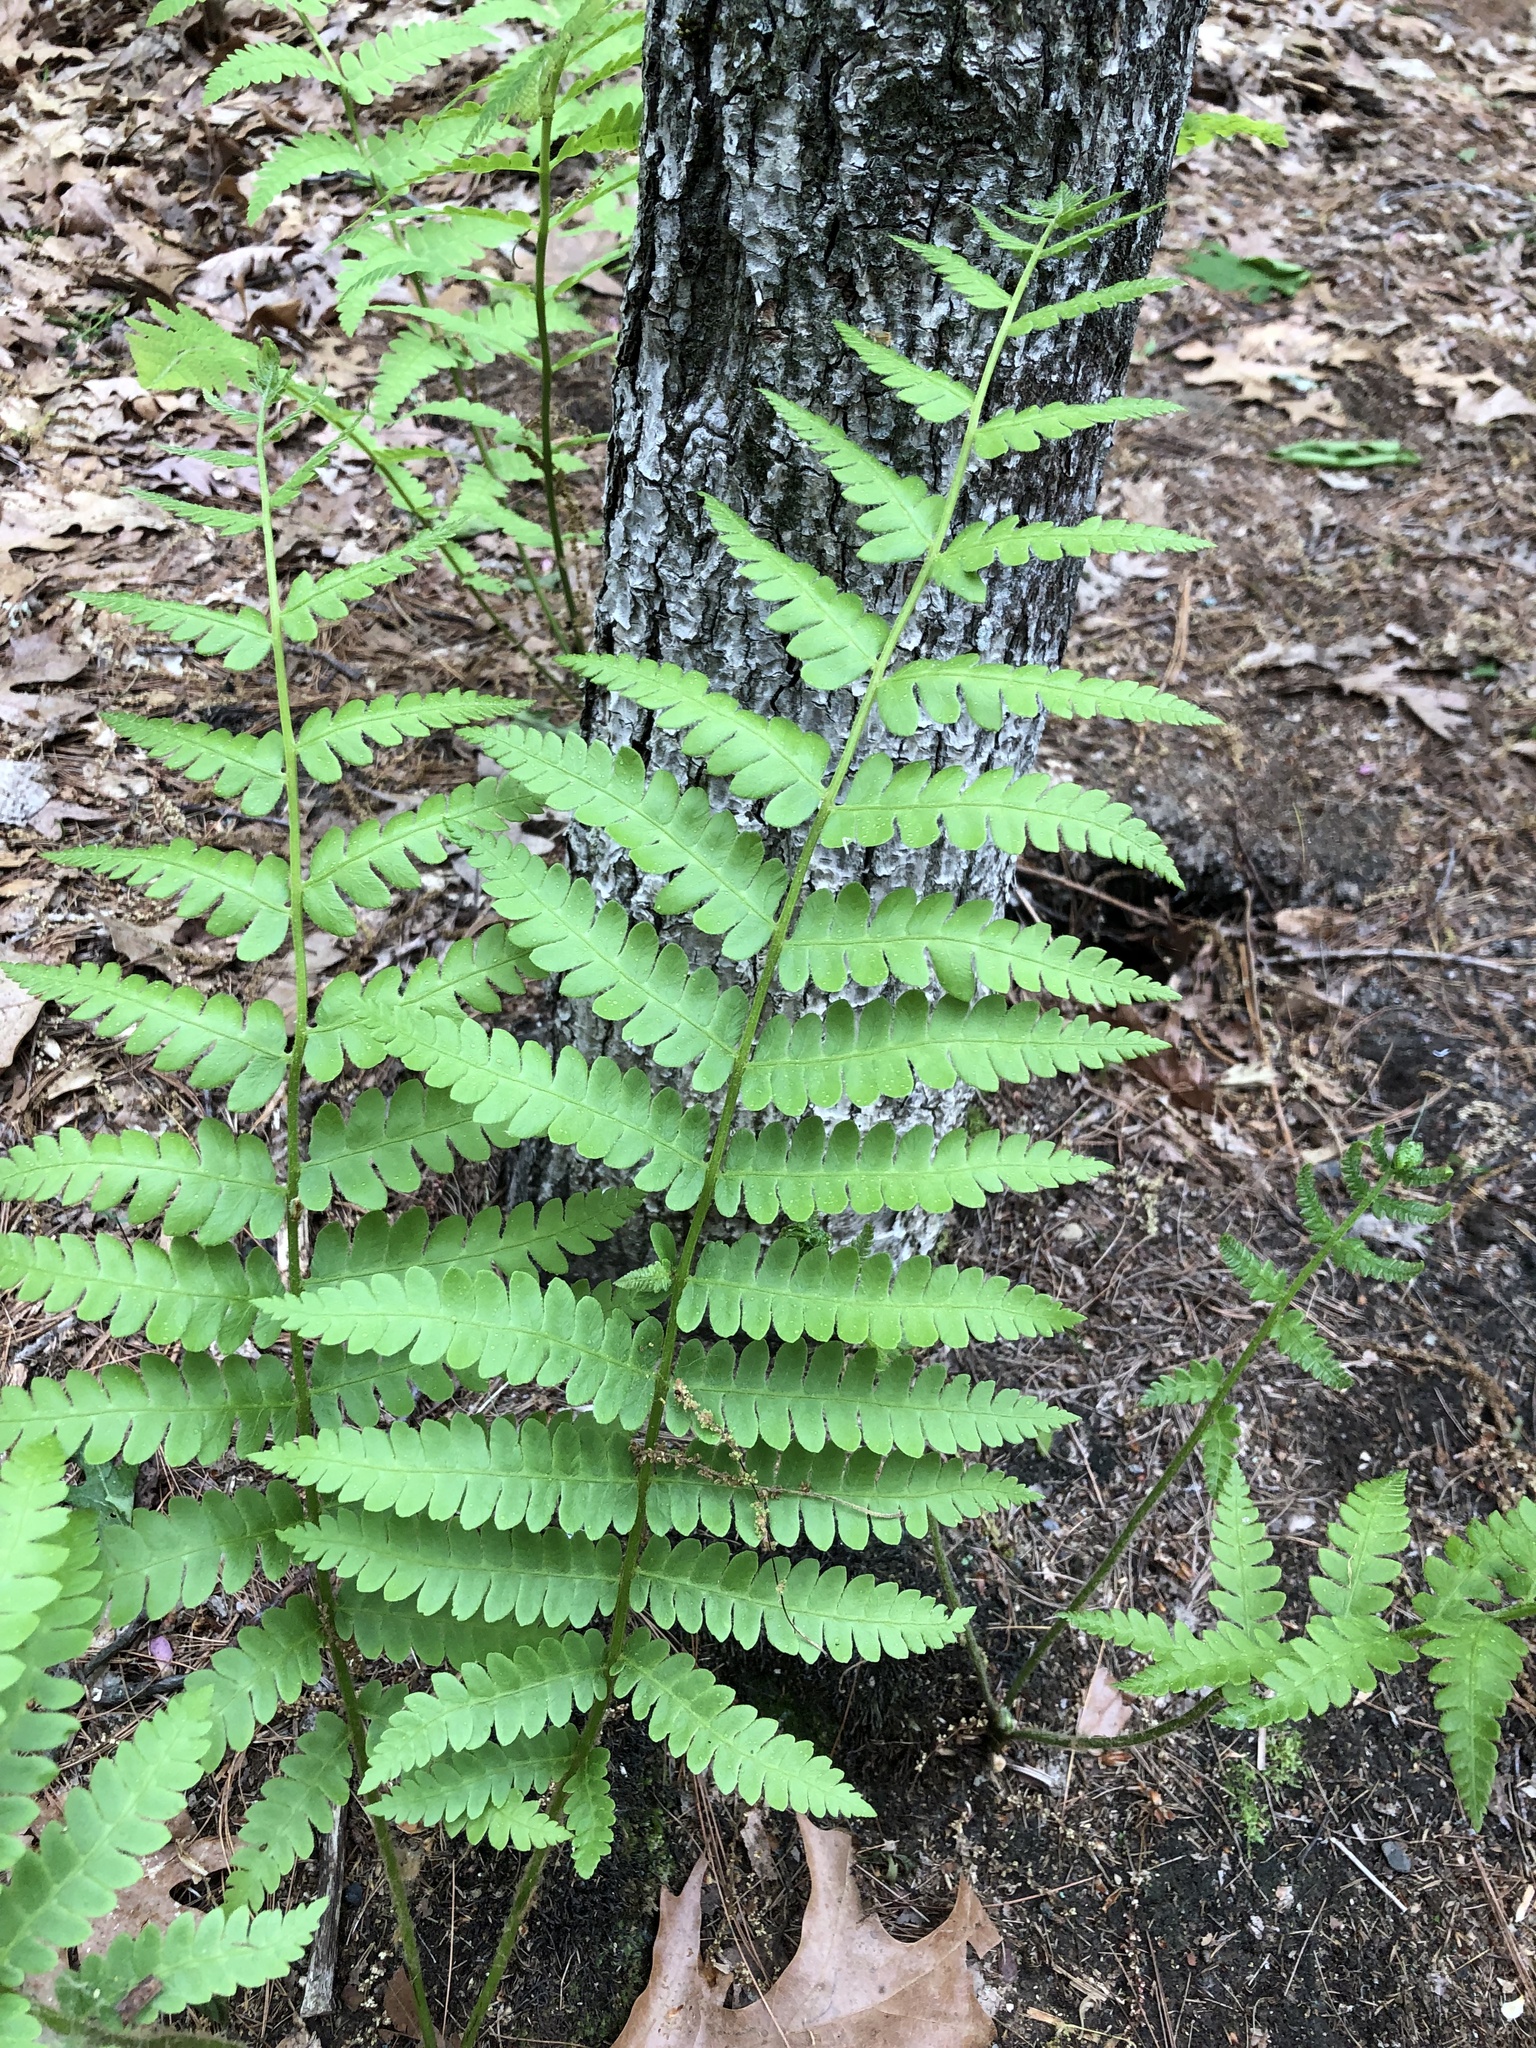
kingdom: Plantae
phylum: Tracheophyta
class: Polypodiopsida
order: Osmundales
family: Osmundaceae
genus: Claytosmunda
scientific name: Claytosmunda claytoniana
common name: Clayton's fern
